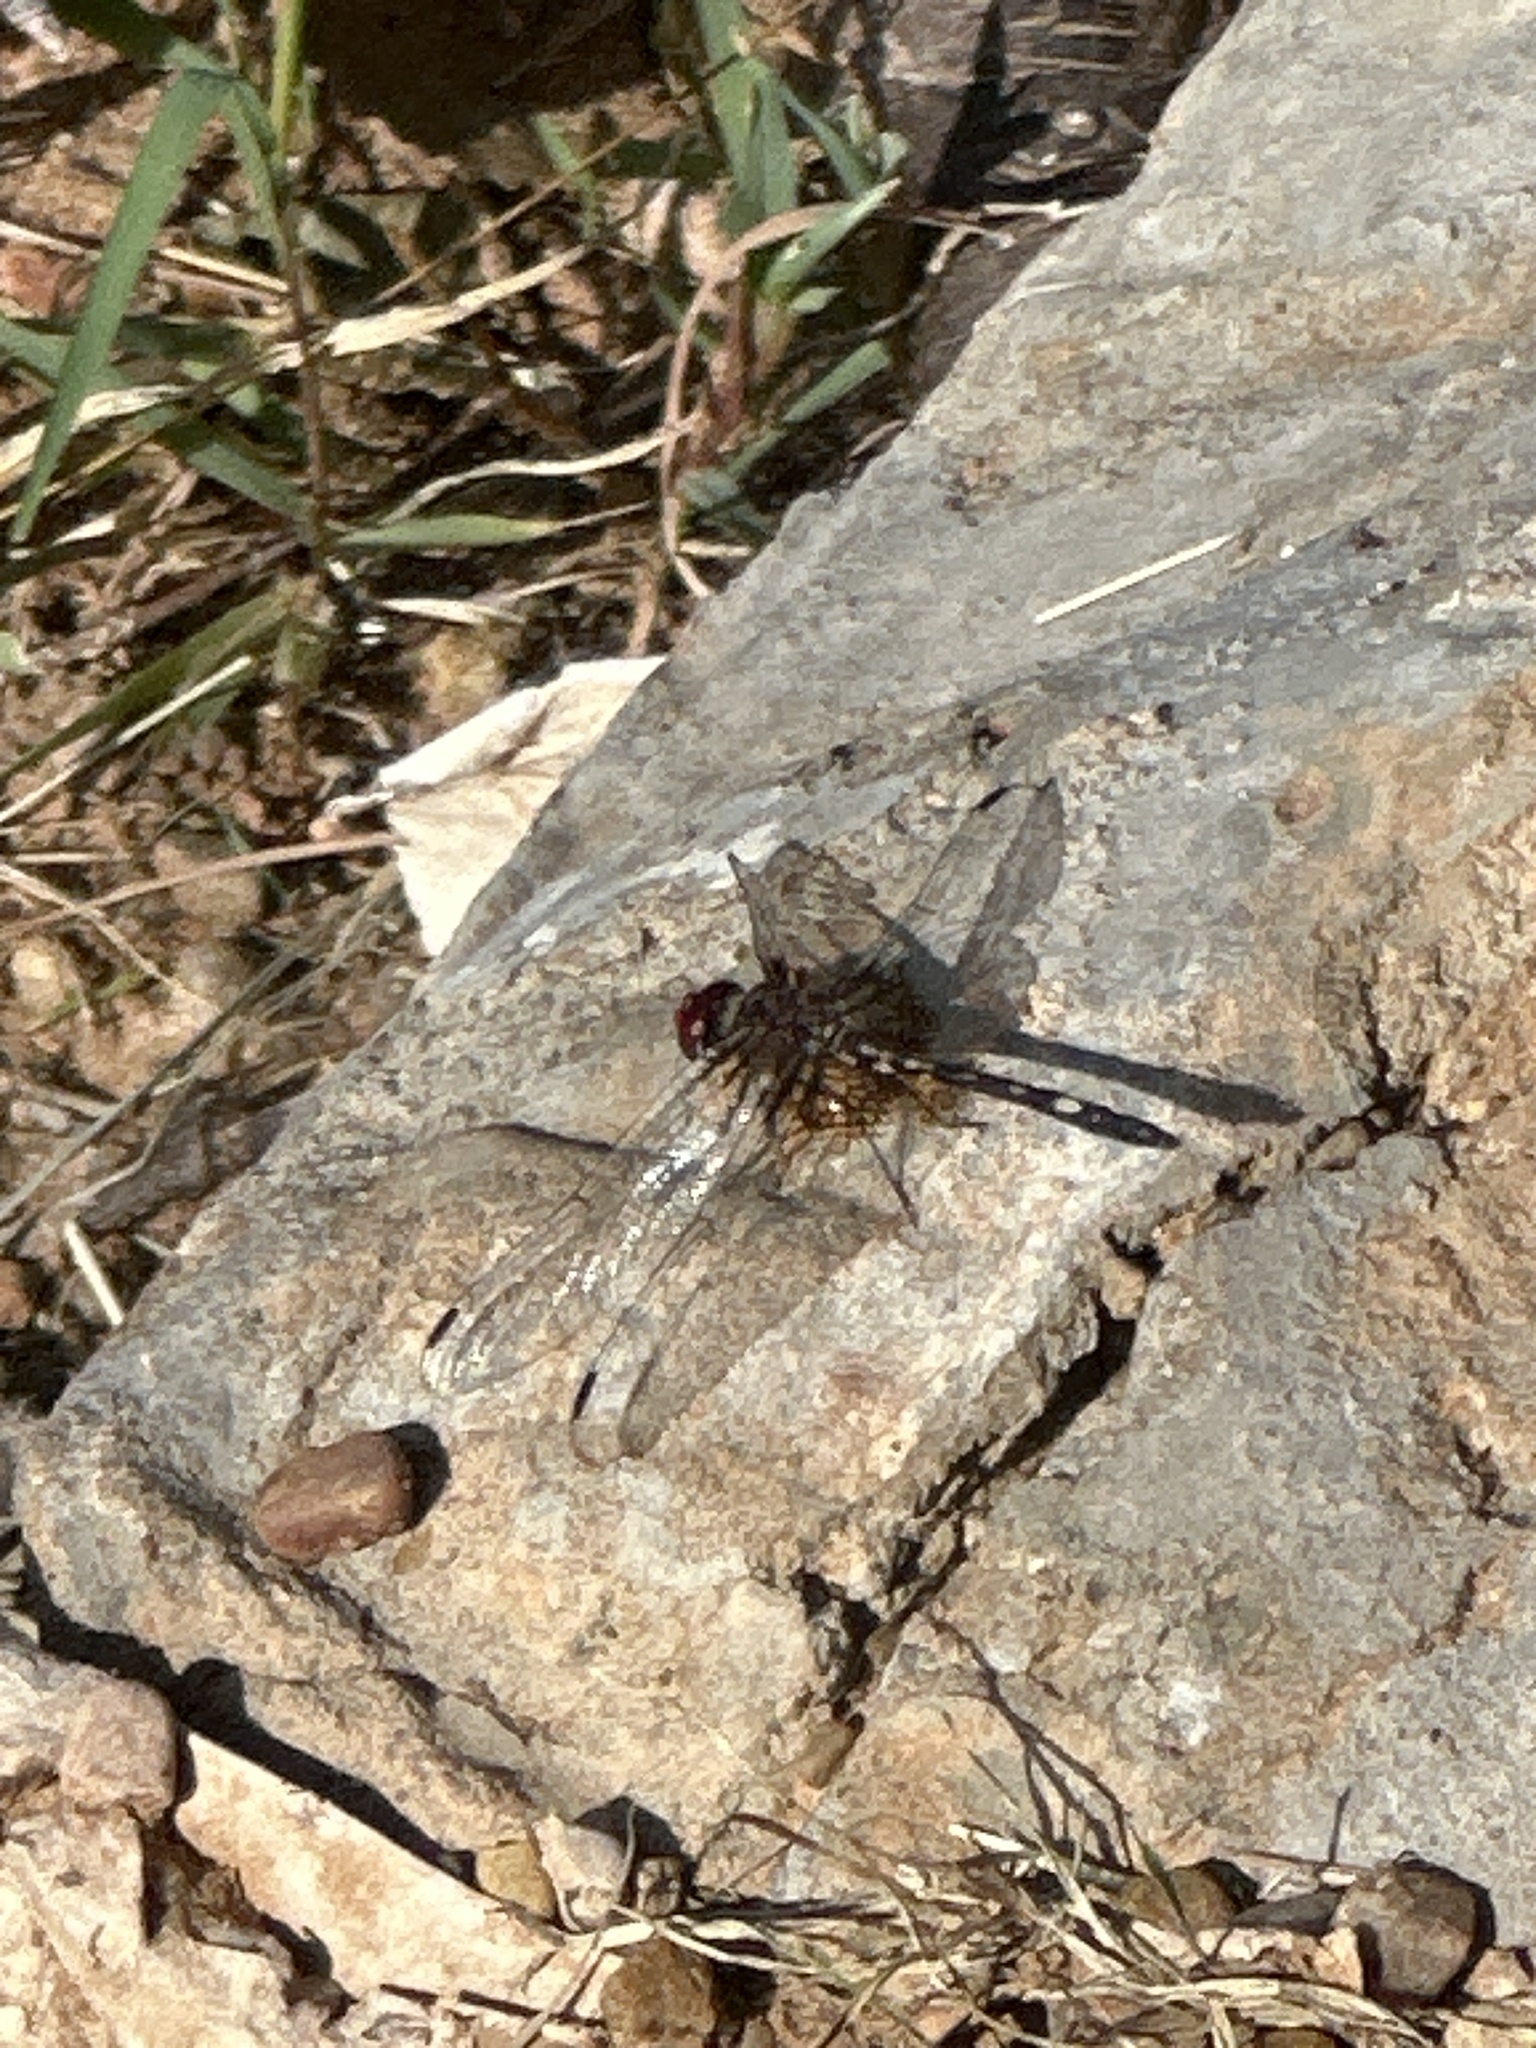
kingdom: Animalia
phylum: Arthropoda
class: Insecta
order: Odonata
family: Libellulidae
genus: Dythemis
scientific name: Dythemis fugax
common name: Checkered setwing
